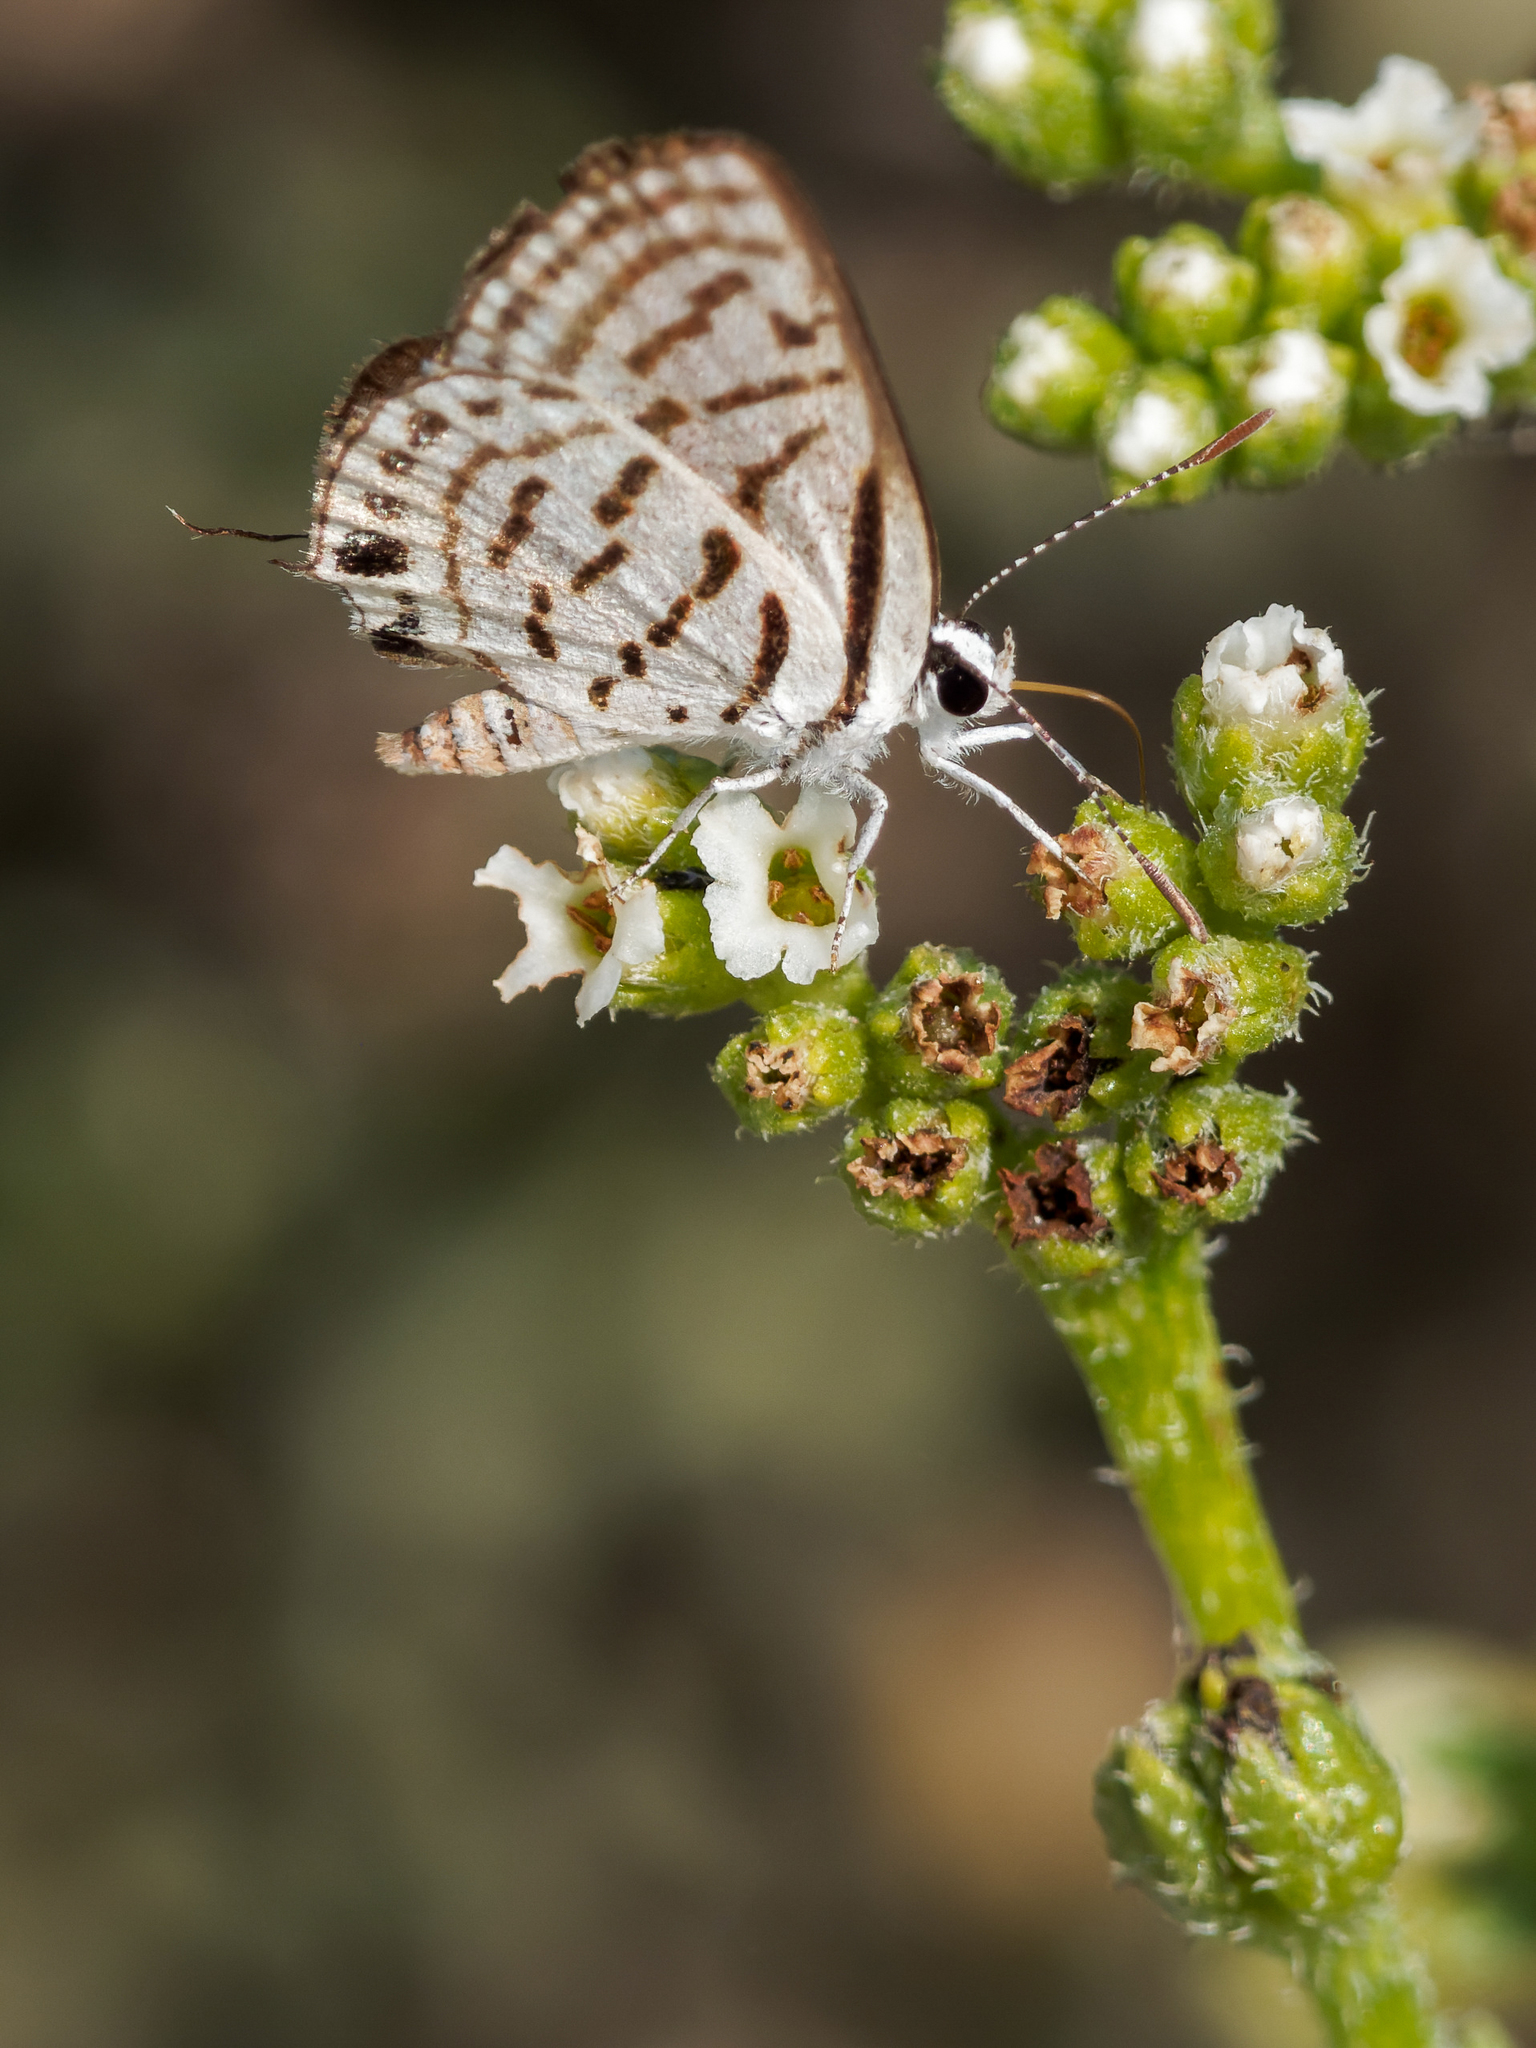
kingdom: Animalia
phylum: Arthropoda
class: Insecta
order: Lepidoptera
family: Lycaenidae
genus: Tarucus
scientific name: Tarucus balkanica
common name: Little tiger blue
